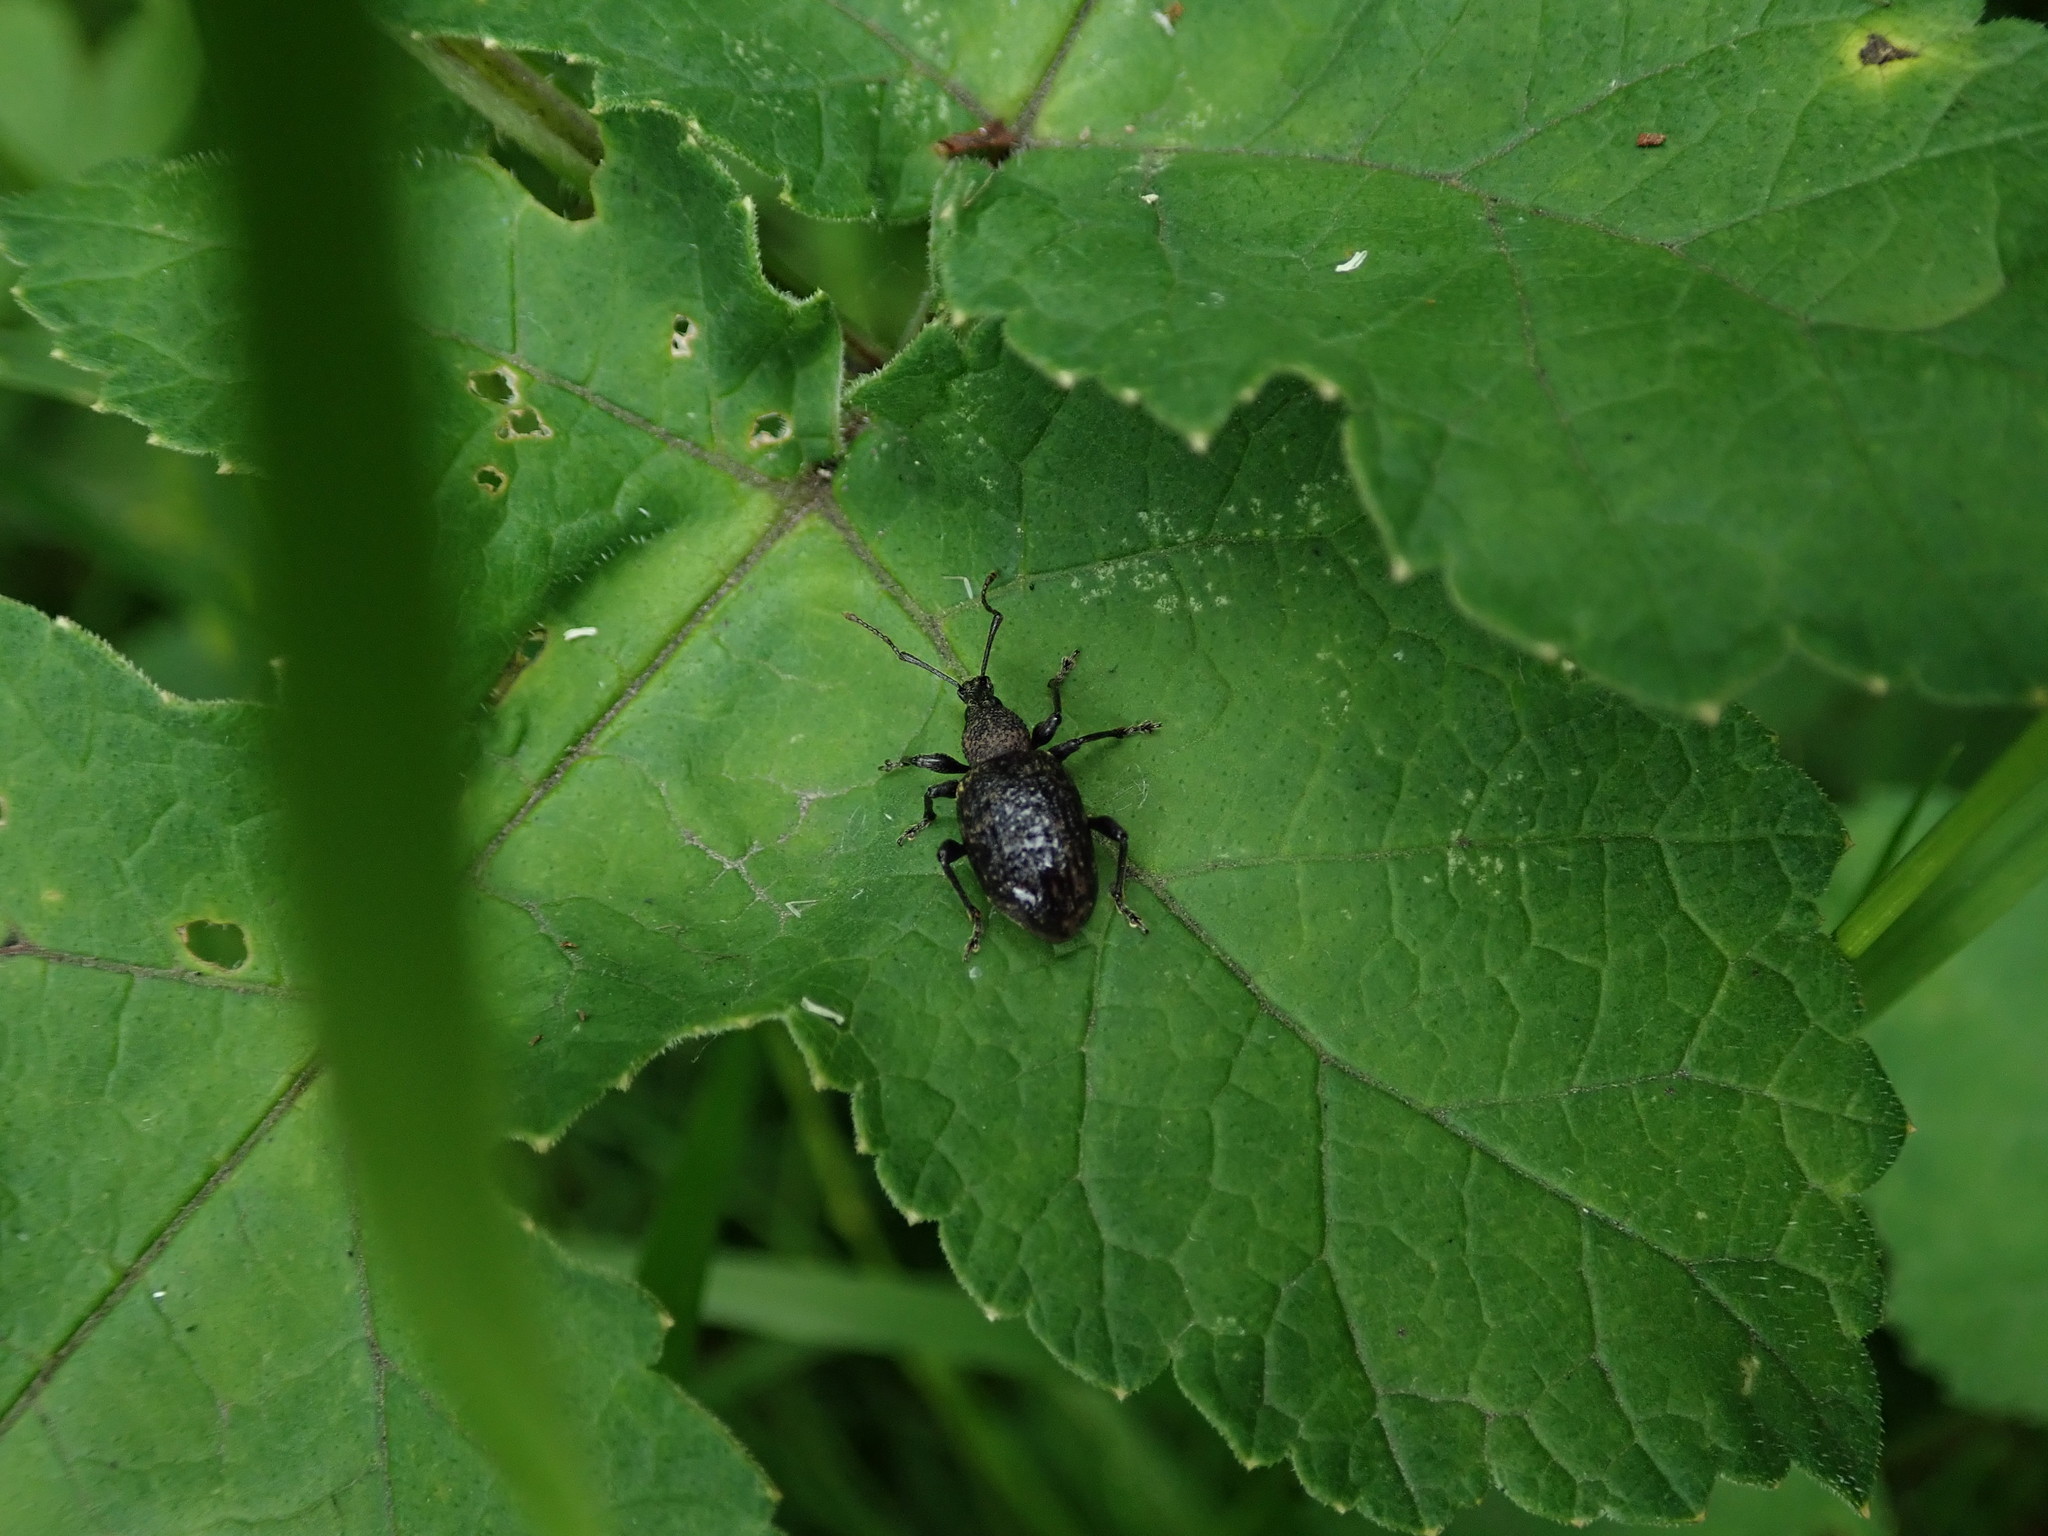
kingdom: Animalia
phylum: Arthropoda
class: Insecta
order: Coleoptera
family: Curculionidae
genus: Otiorhynchus
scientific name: Otiorhynchus sulcatus
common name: Black vine weevil
